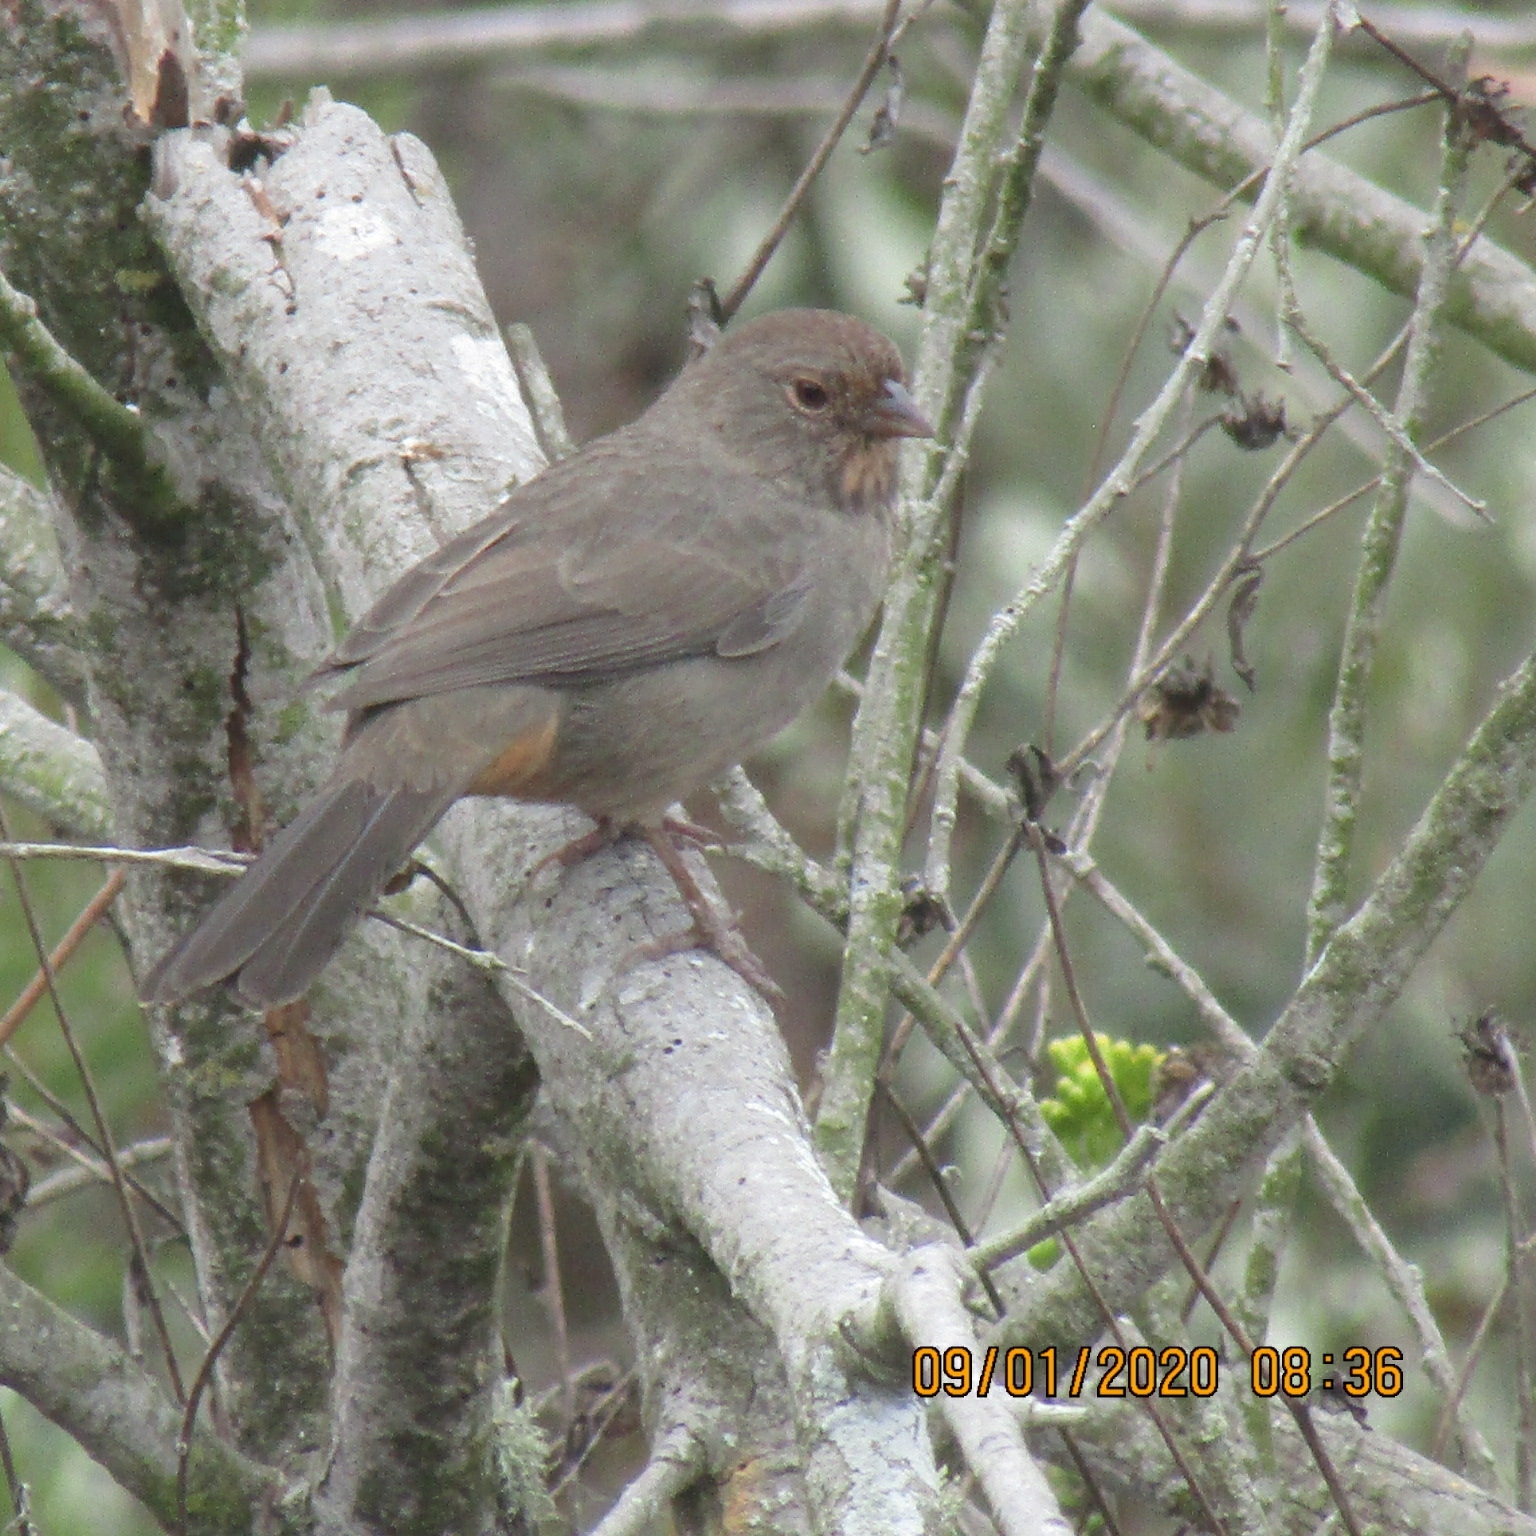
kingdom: Animalia
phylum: Chordata
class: Aves
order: Passeriformes
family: Passerellidae
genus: Melozone
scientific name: Melozone crissalis
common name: California towhee
